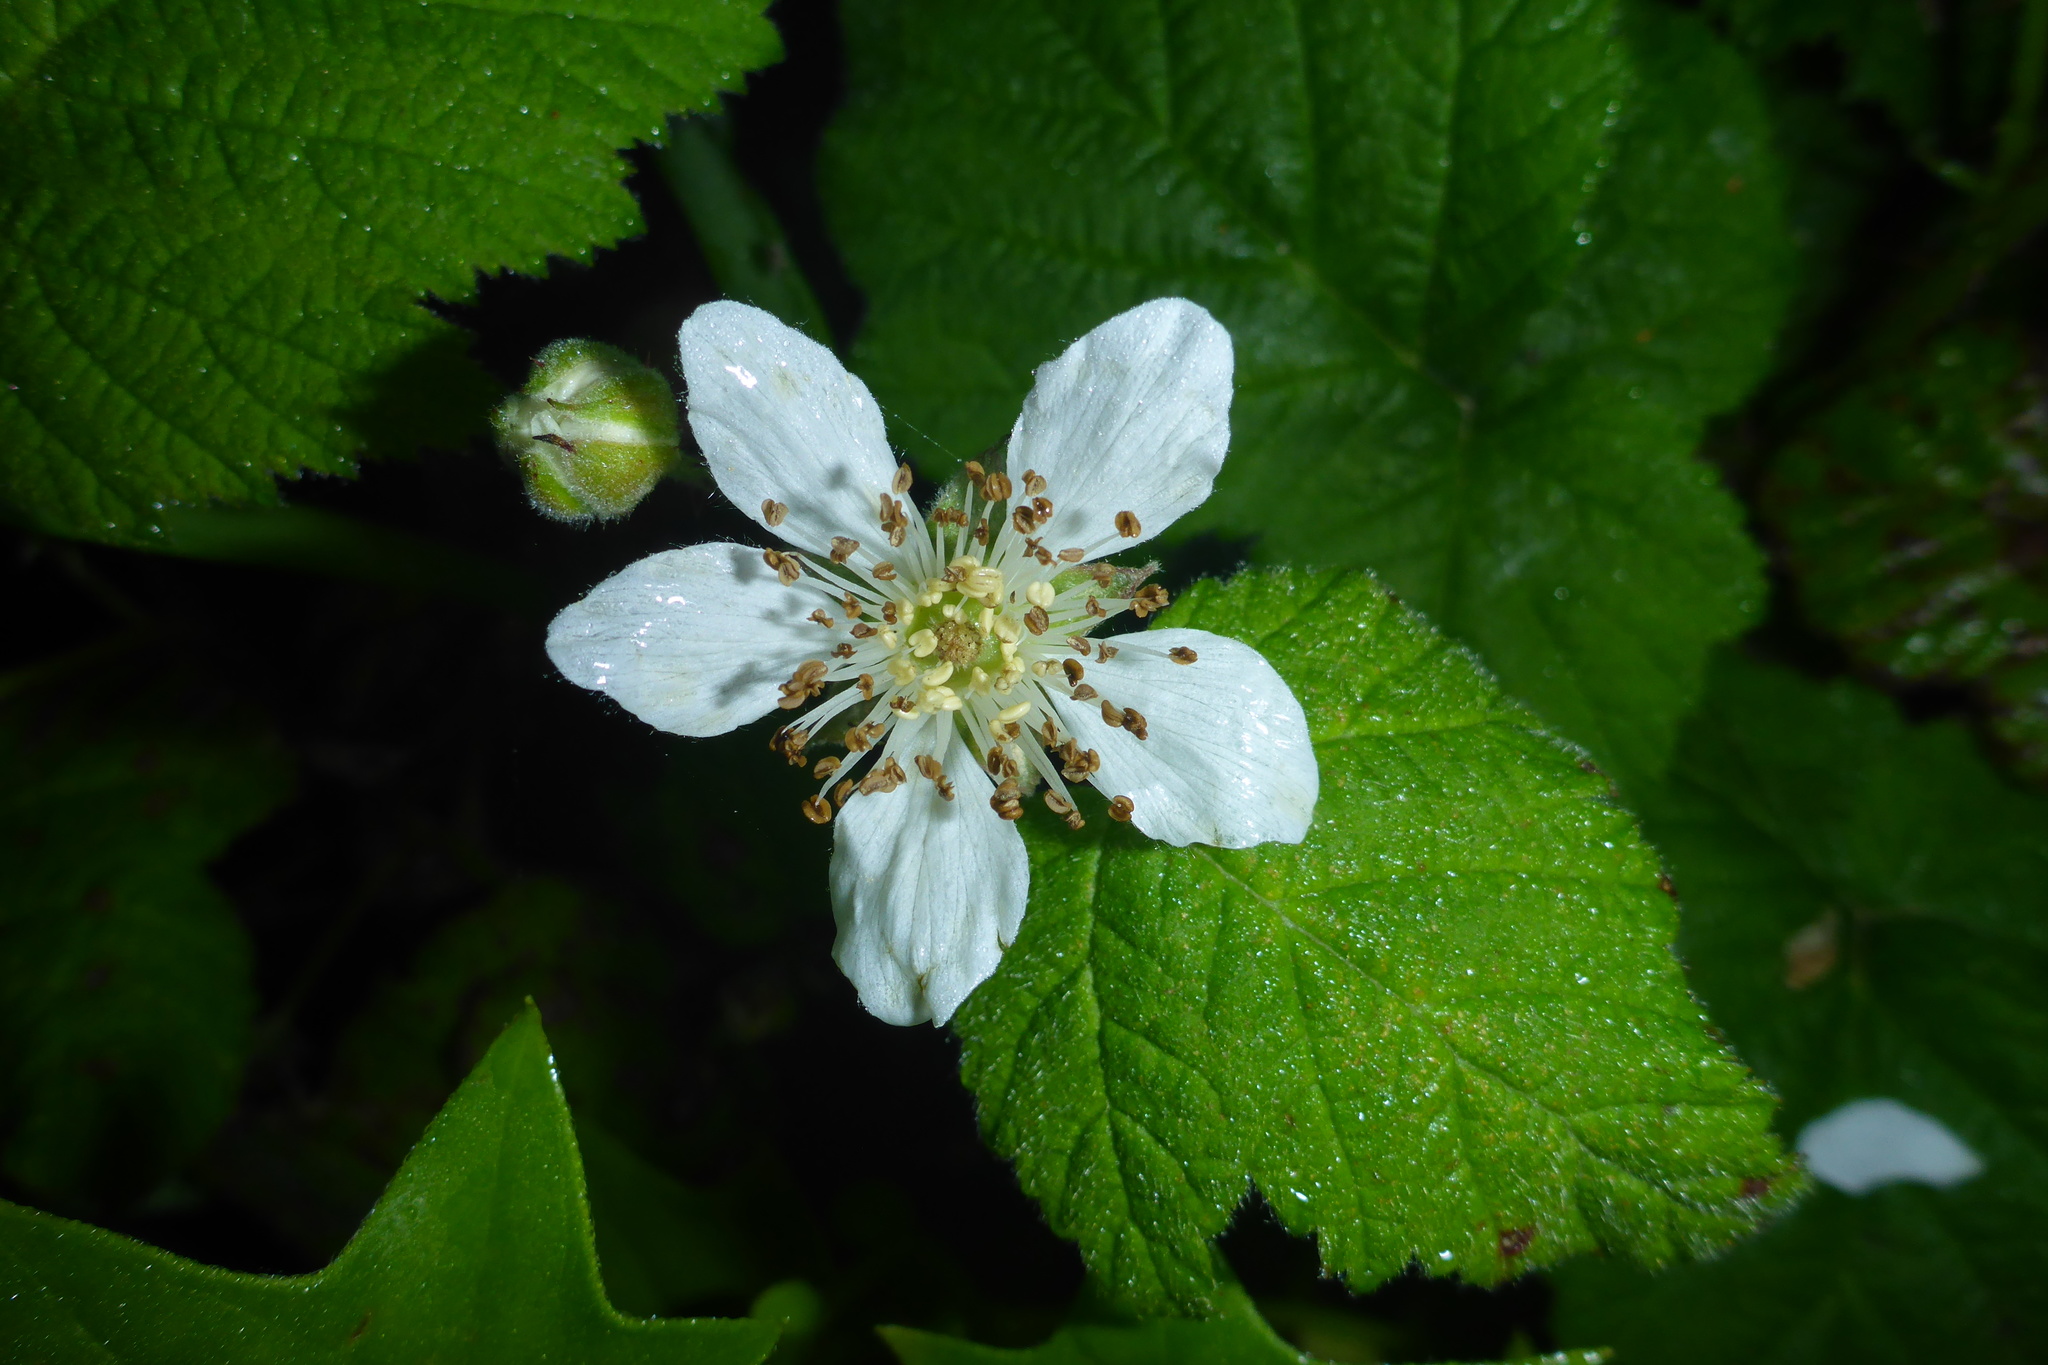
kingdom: Plantae
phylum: Tracheophyta
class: Magnoliopsida
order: Rosales
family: Rosaceae
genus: Rubus
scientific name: Rubus ursinus
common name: Pacific blackberry
